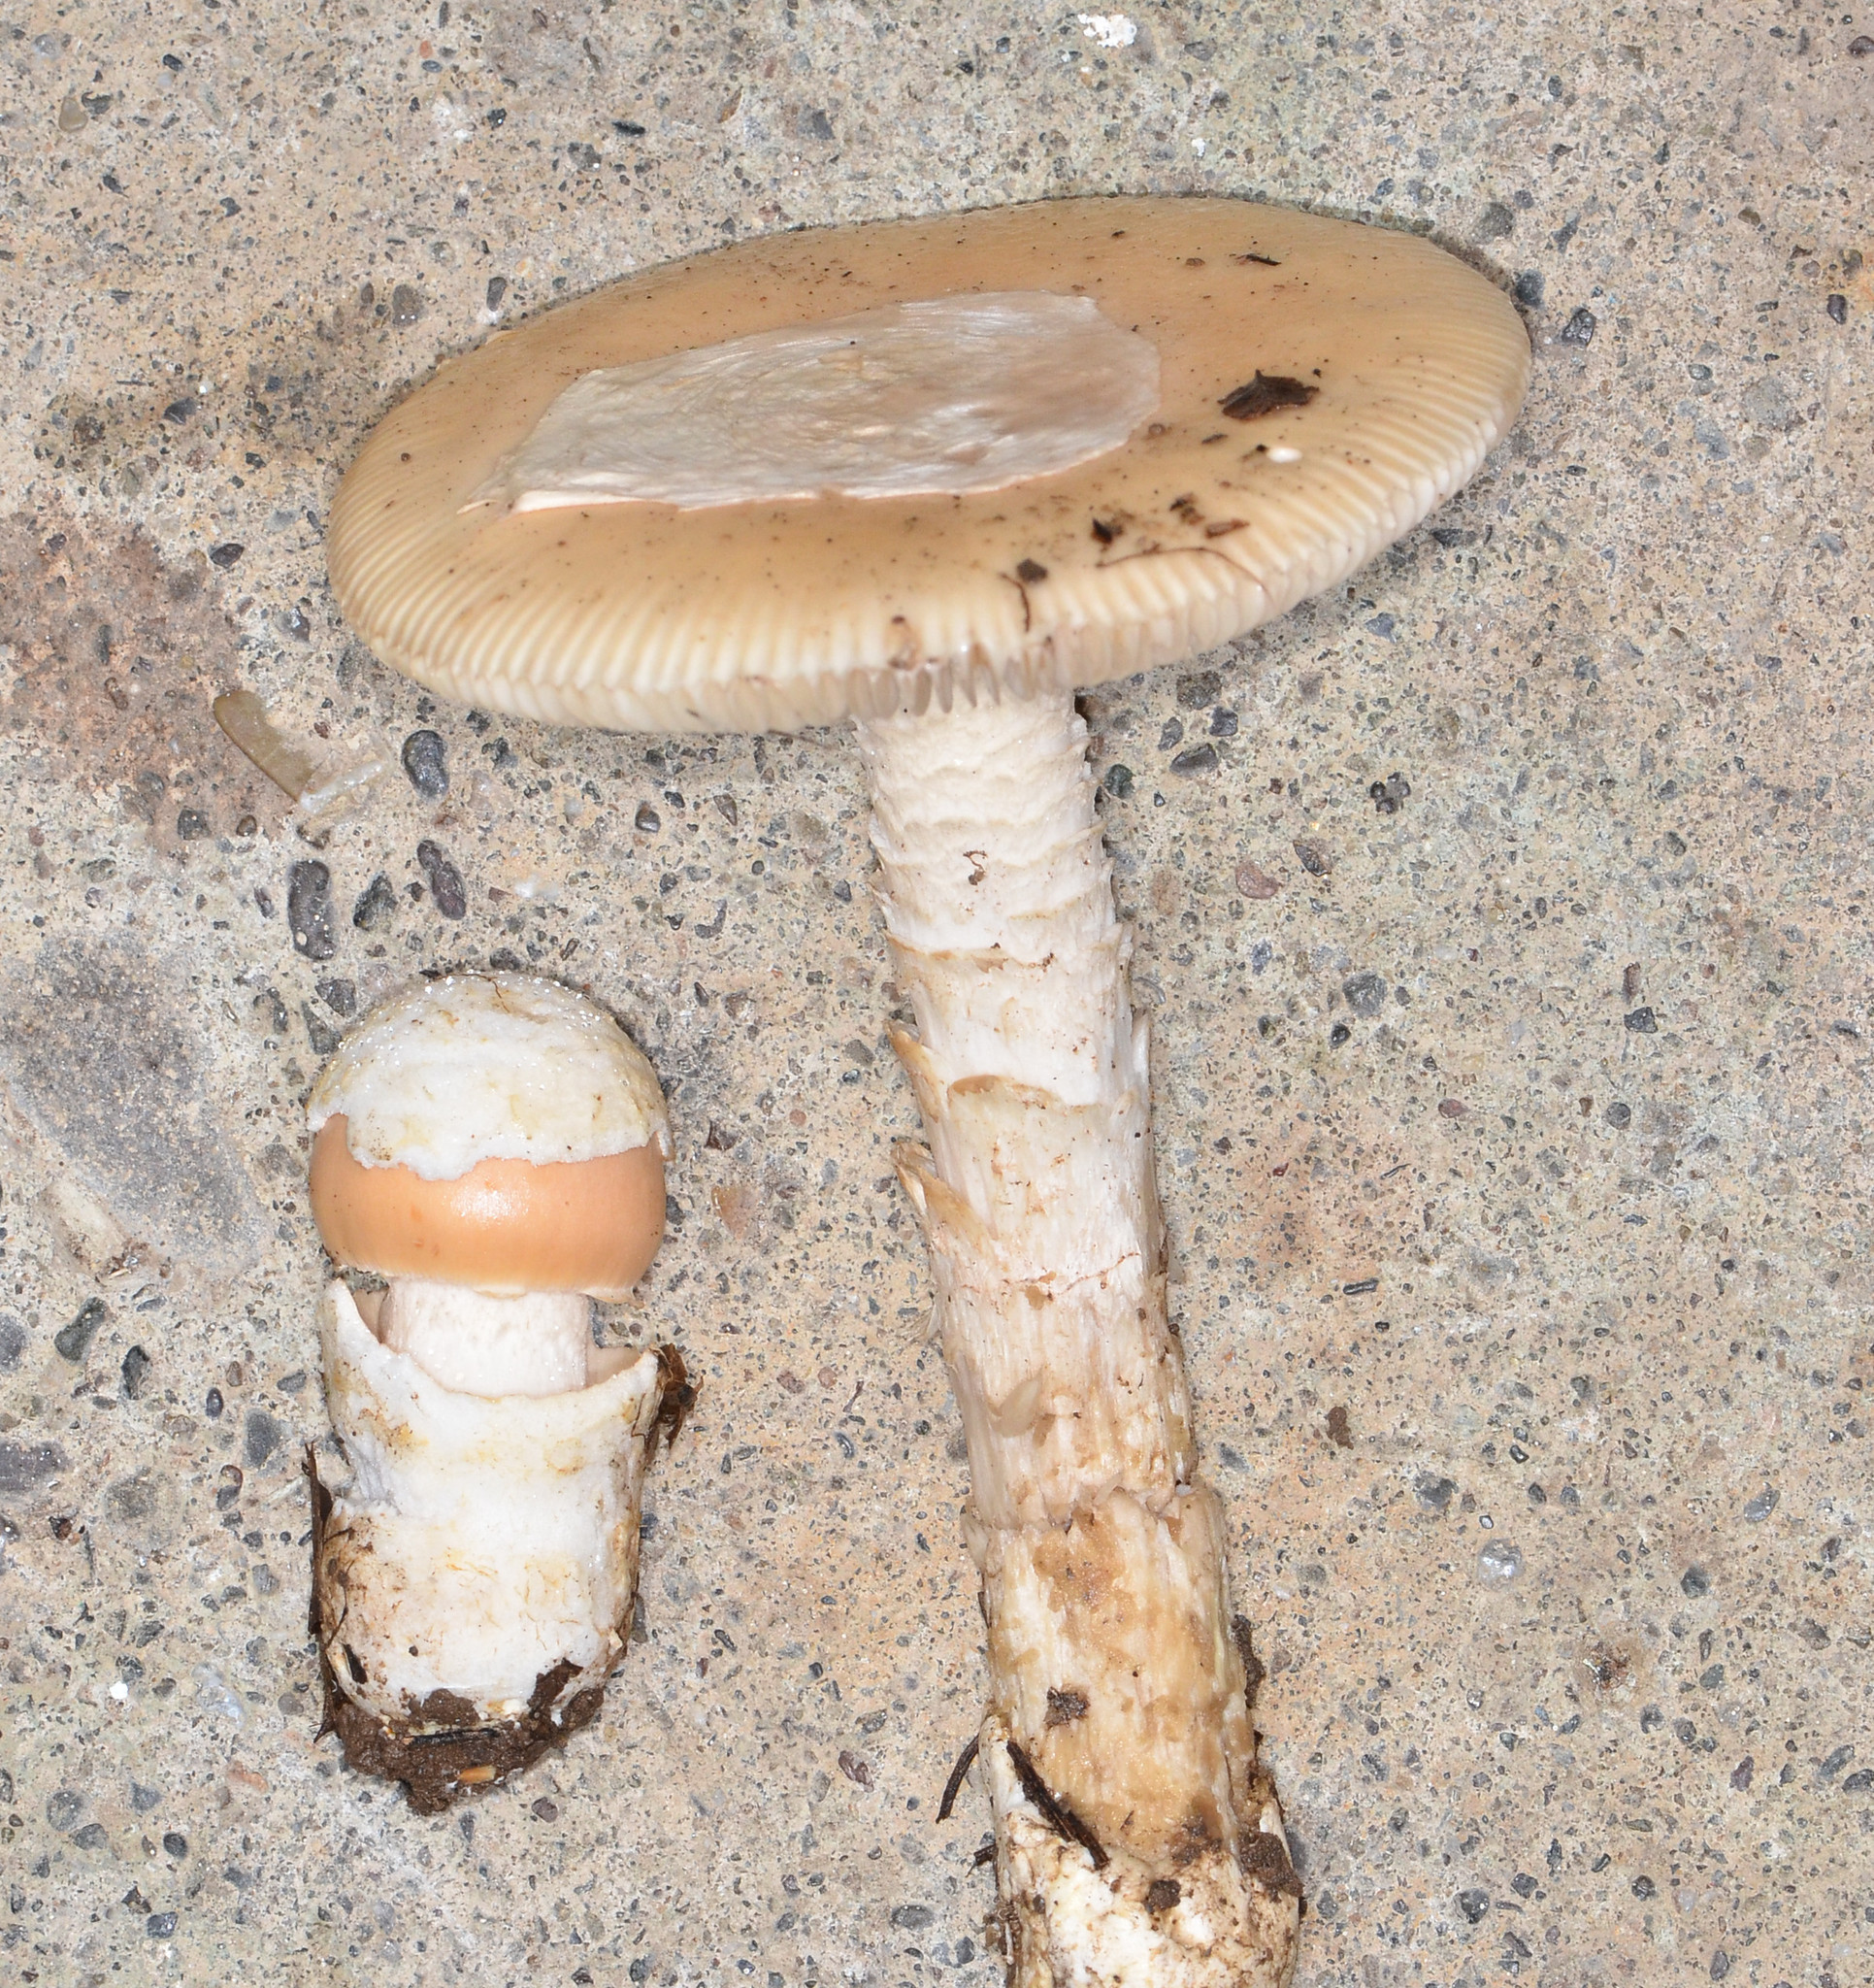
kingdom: Fungi
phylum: Basidiomycota
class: Agaricomycetes
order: Agaricales
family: Amanitaceae
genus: Amanita
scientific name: Amanita velosa
